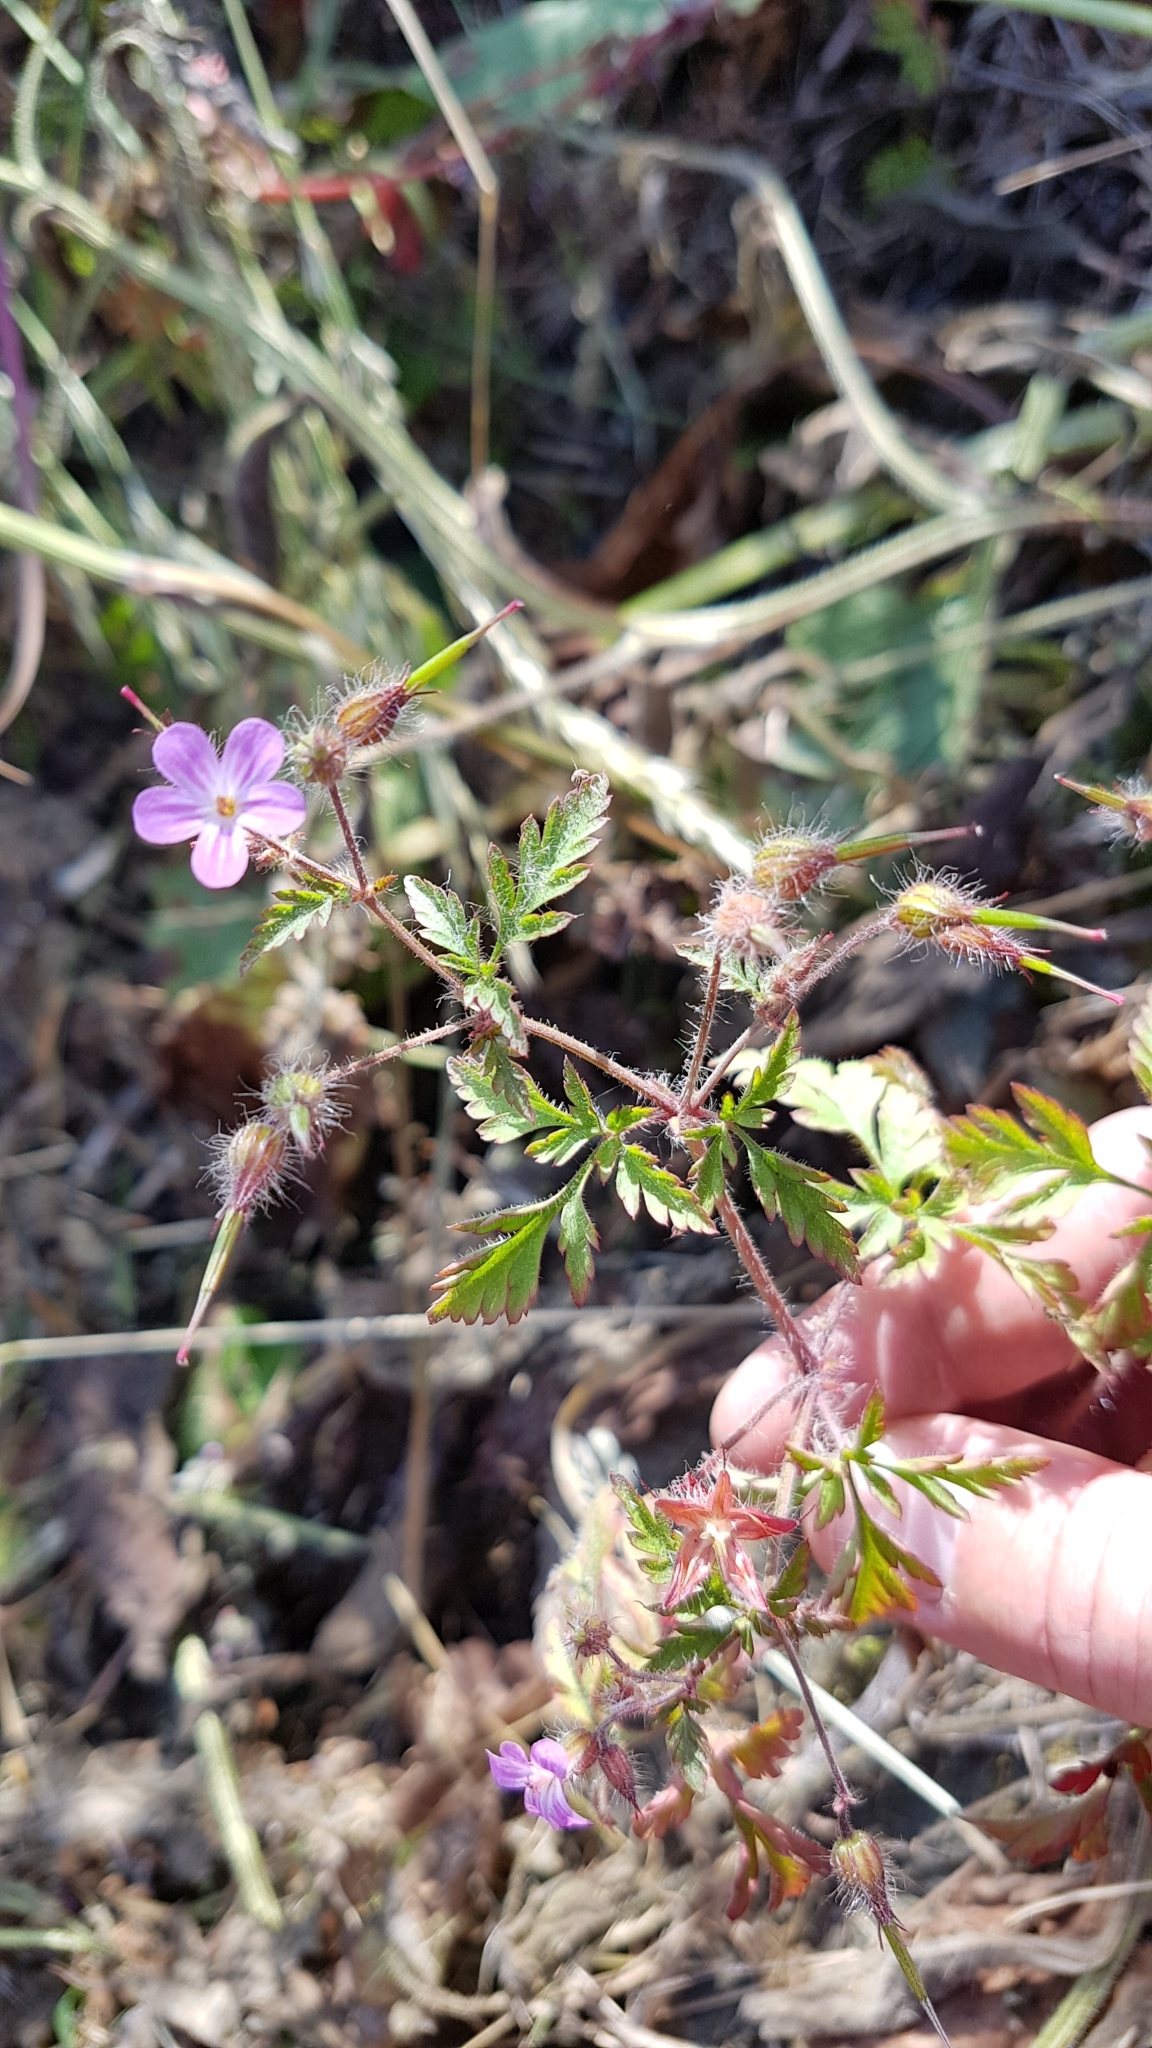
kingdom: Plantae
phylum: Tracheophyta
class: Magnoliopsida
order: Geraniales
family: Geraniaceae
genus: Geranium
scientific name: Geranium robertianum
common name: Herb-robert
